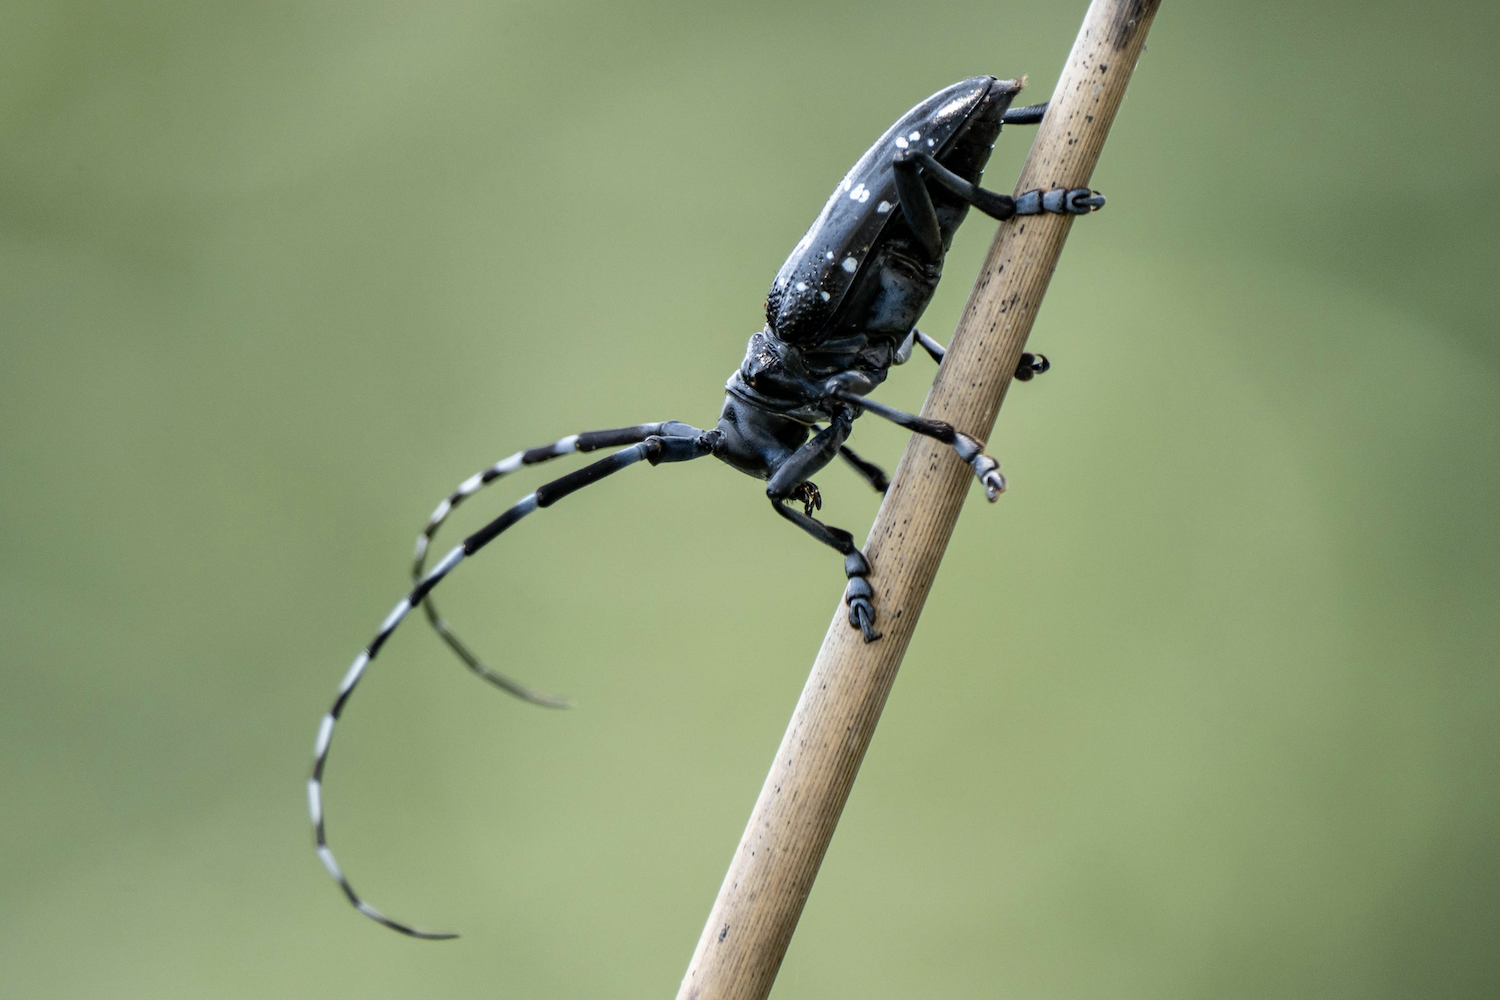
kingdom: Animalia
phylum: Arthropoda
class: Insecta
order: Coleoptera
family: Cerambycidae
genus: Anoplophora
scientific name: Anoplophora chinensis
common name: Citrus longhorned beetle
